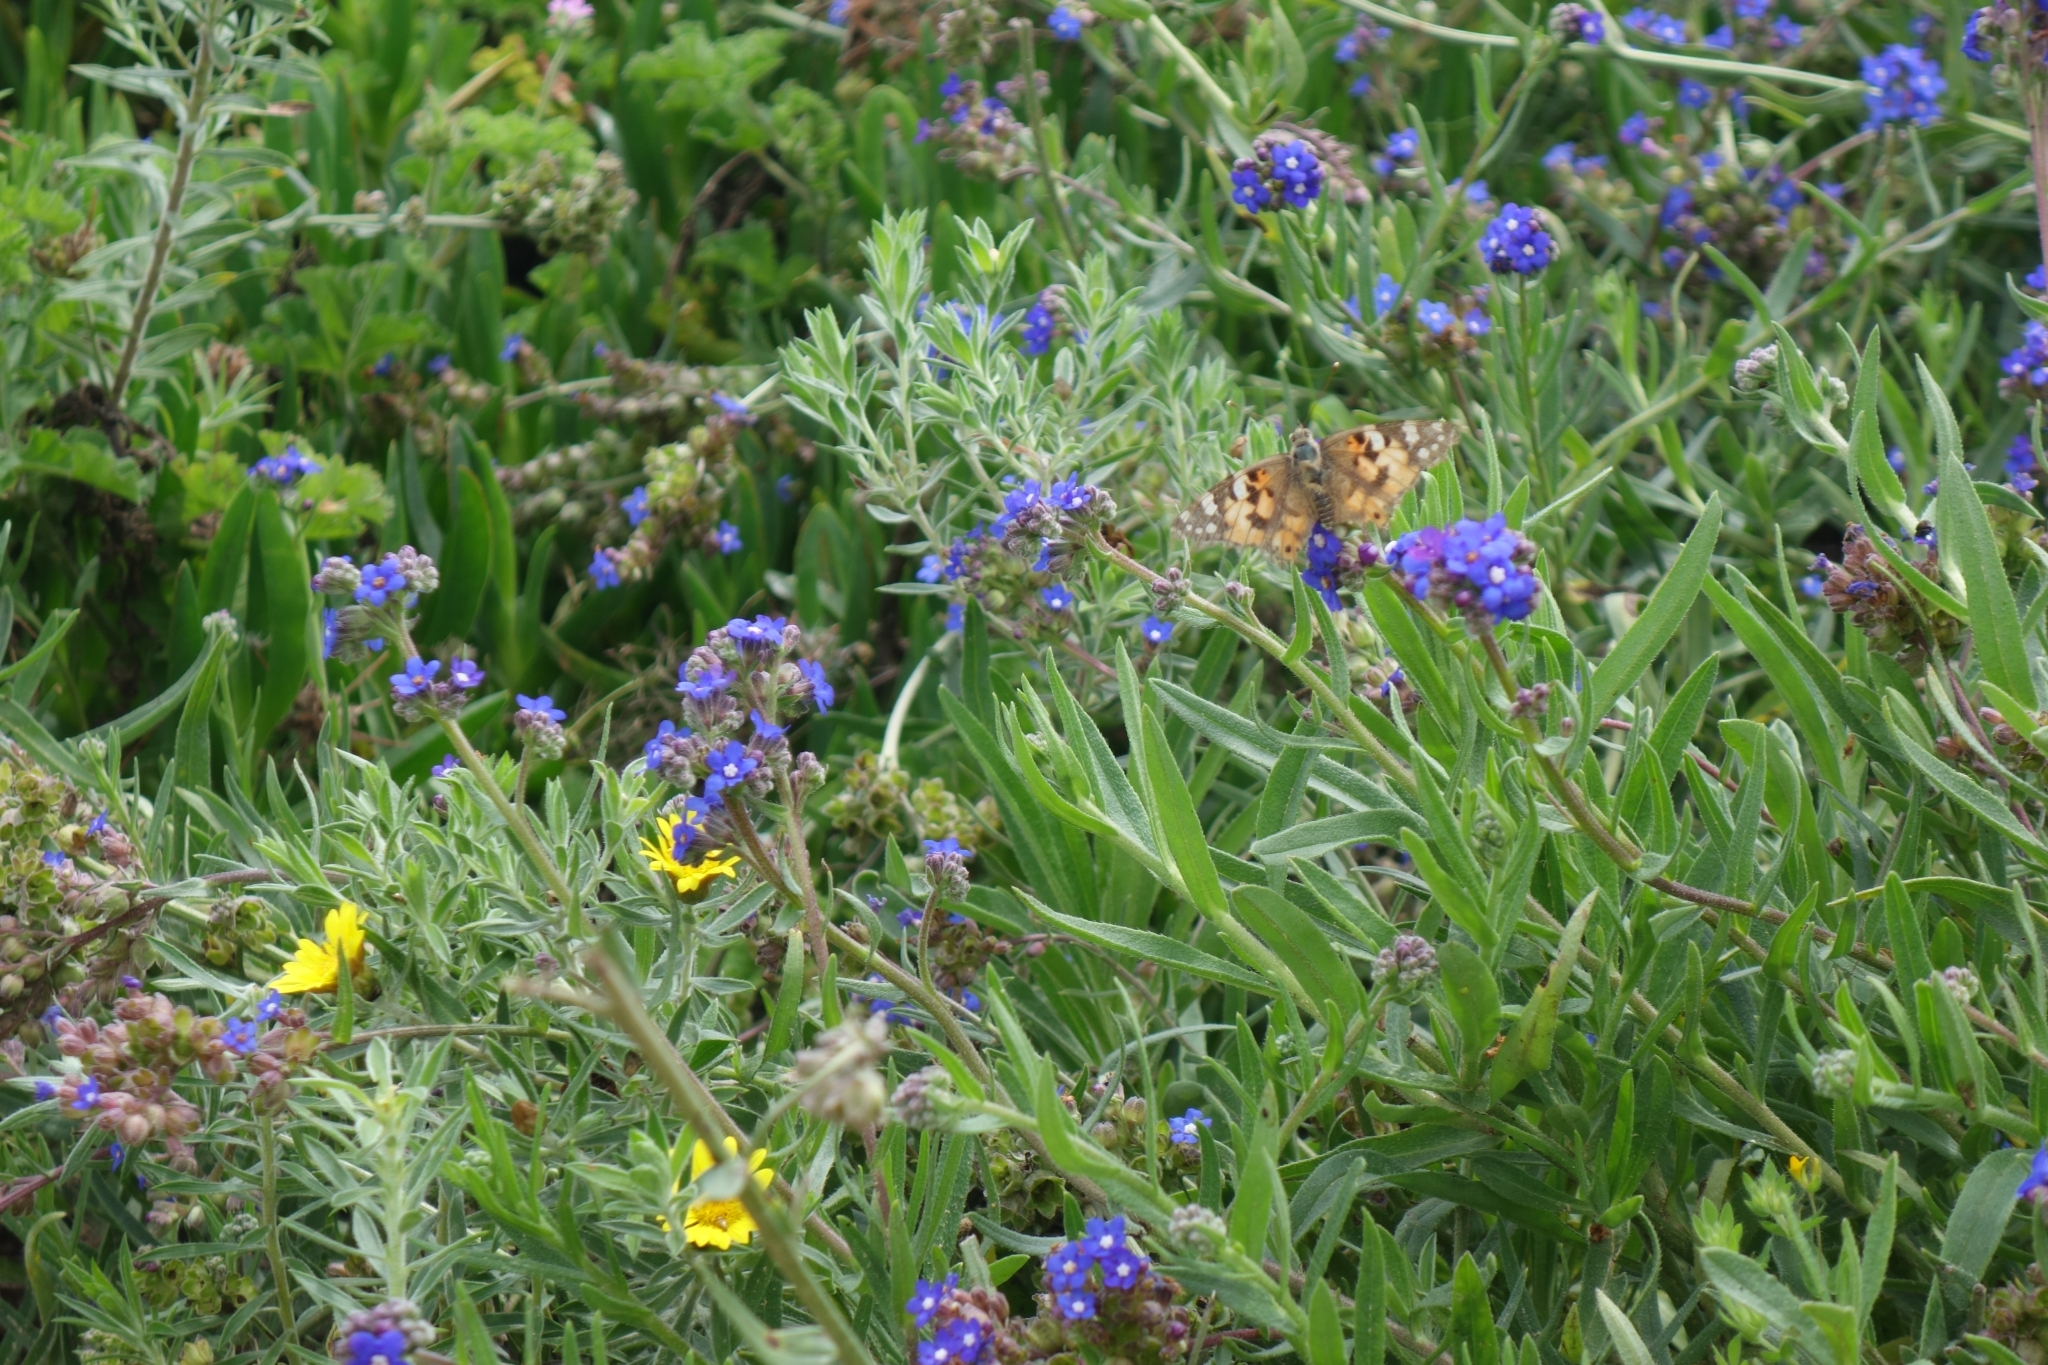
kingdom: Animalia
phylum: Arthropoda
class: Insecta
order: Lepidoptera
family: Nymphalidae
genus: Vanessa
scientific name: Vanessa cardui
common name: Painted lady
